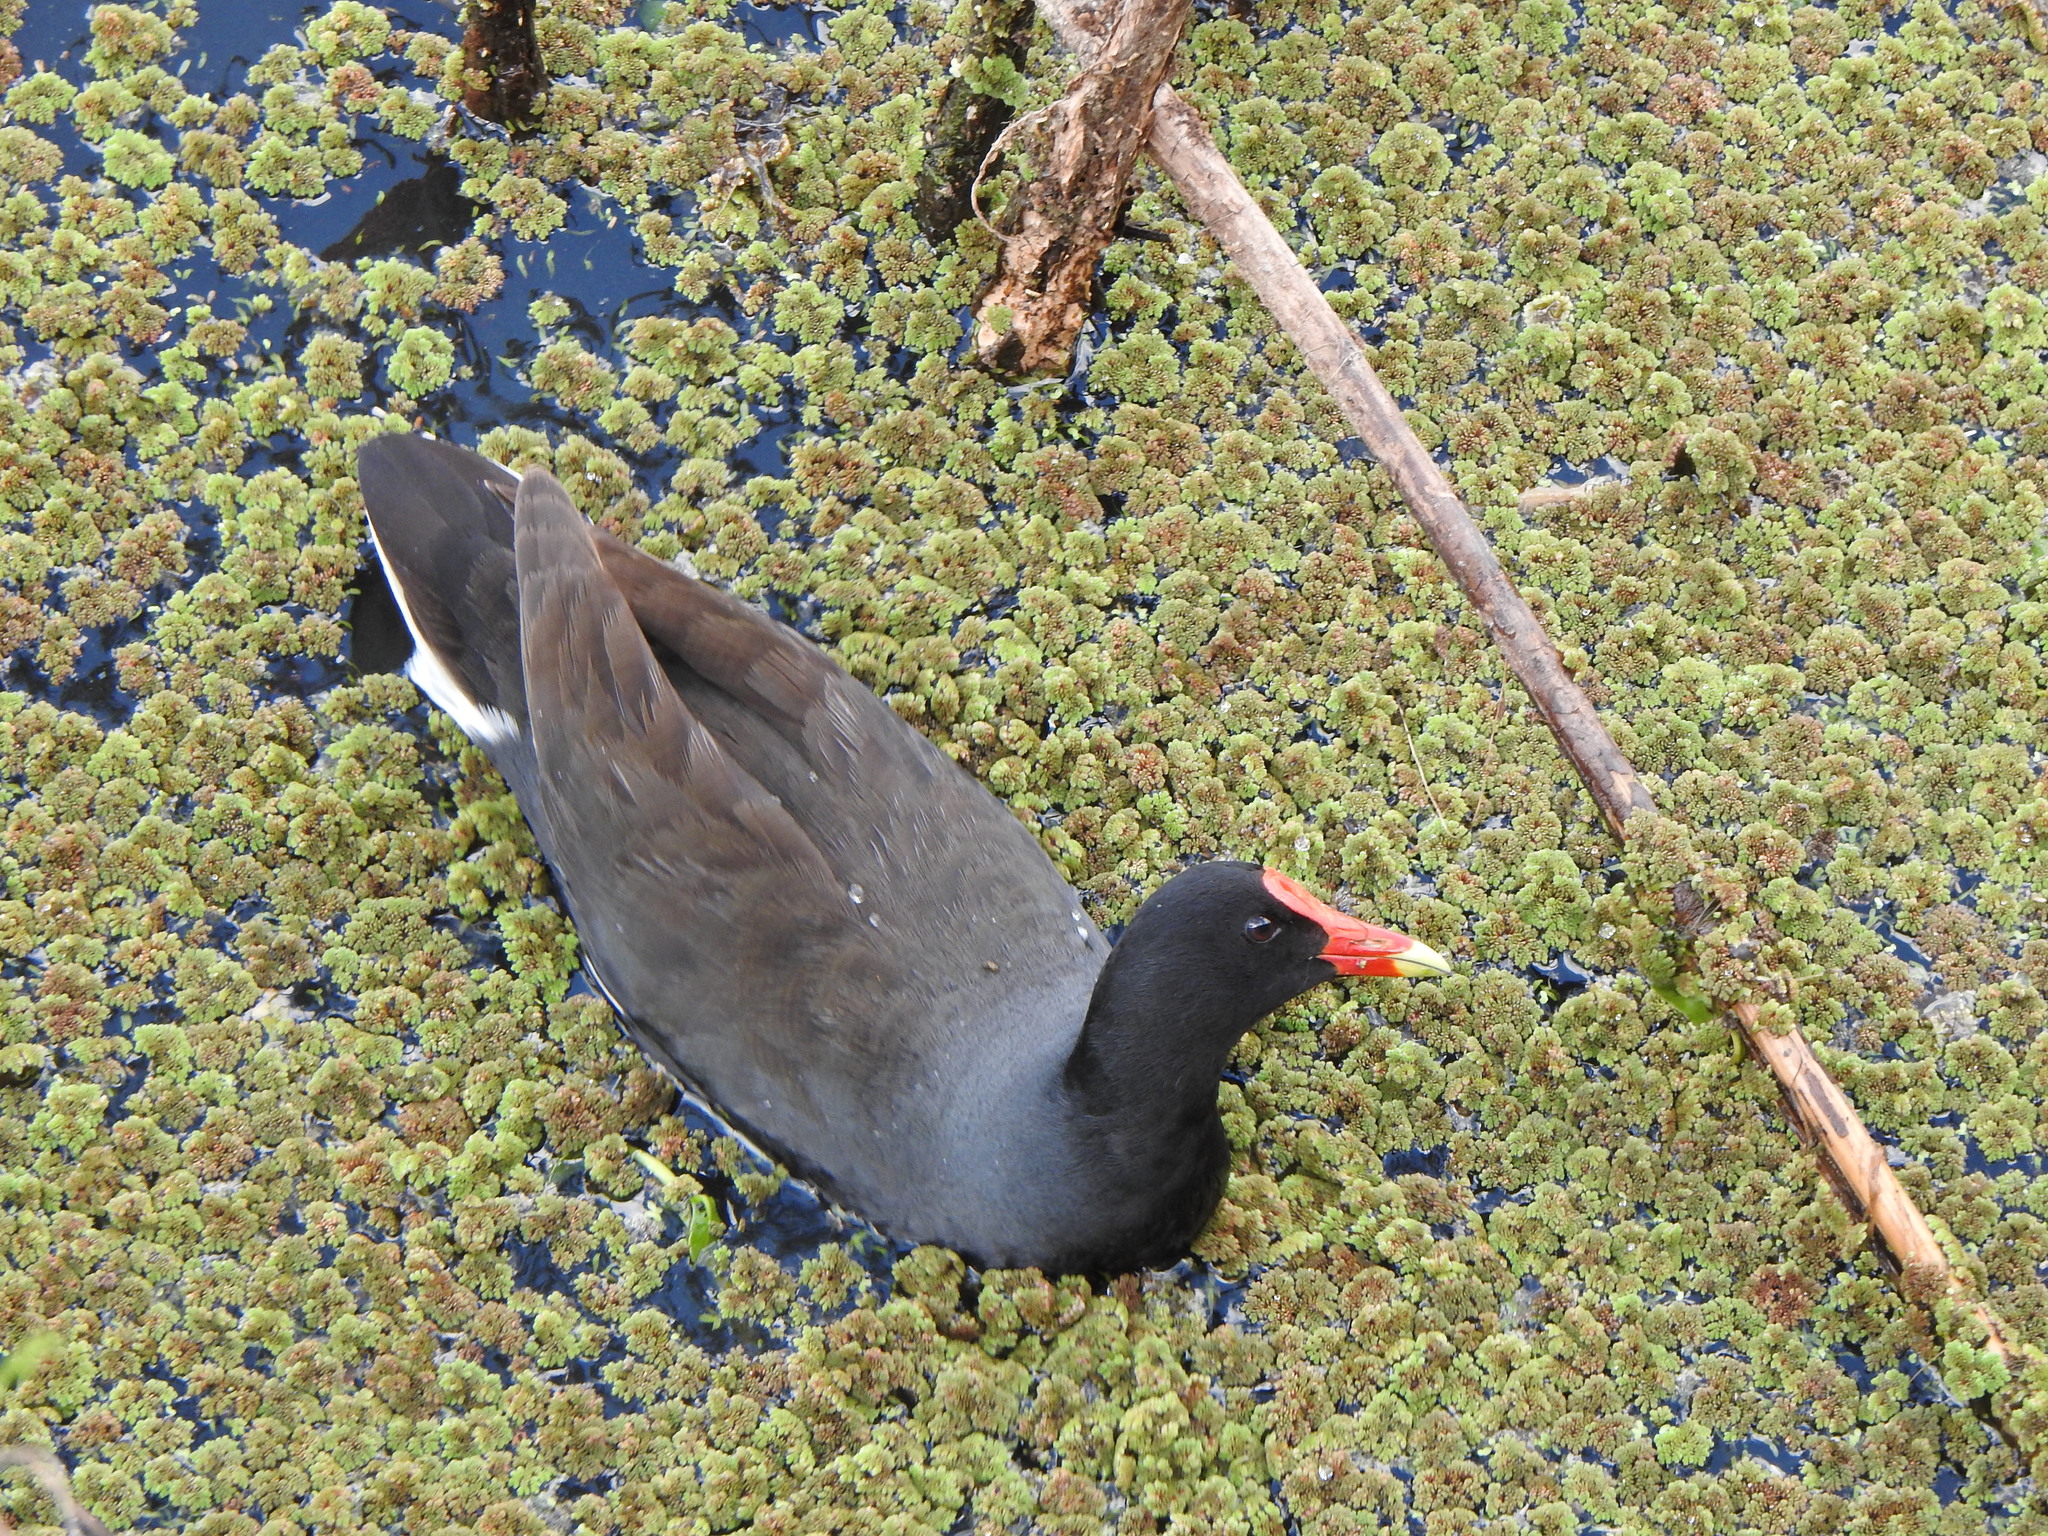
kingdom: Animalia
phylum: Chordata
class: Aves
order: Gruiformes
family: Rallidae
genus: Gallinula
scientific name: Gallinula chloropus
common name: Common moorhen
